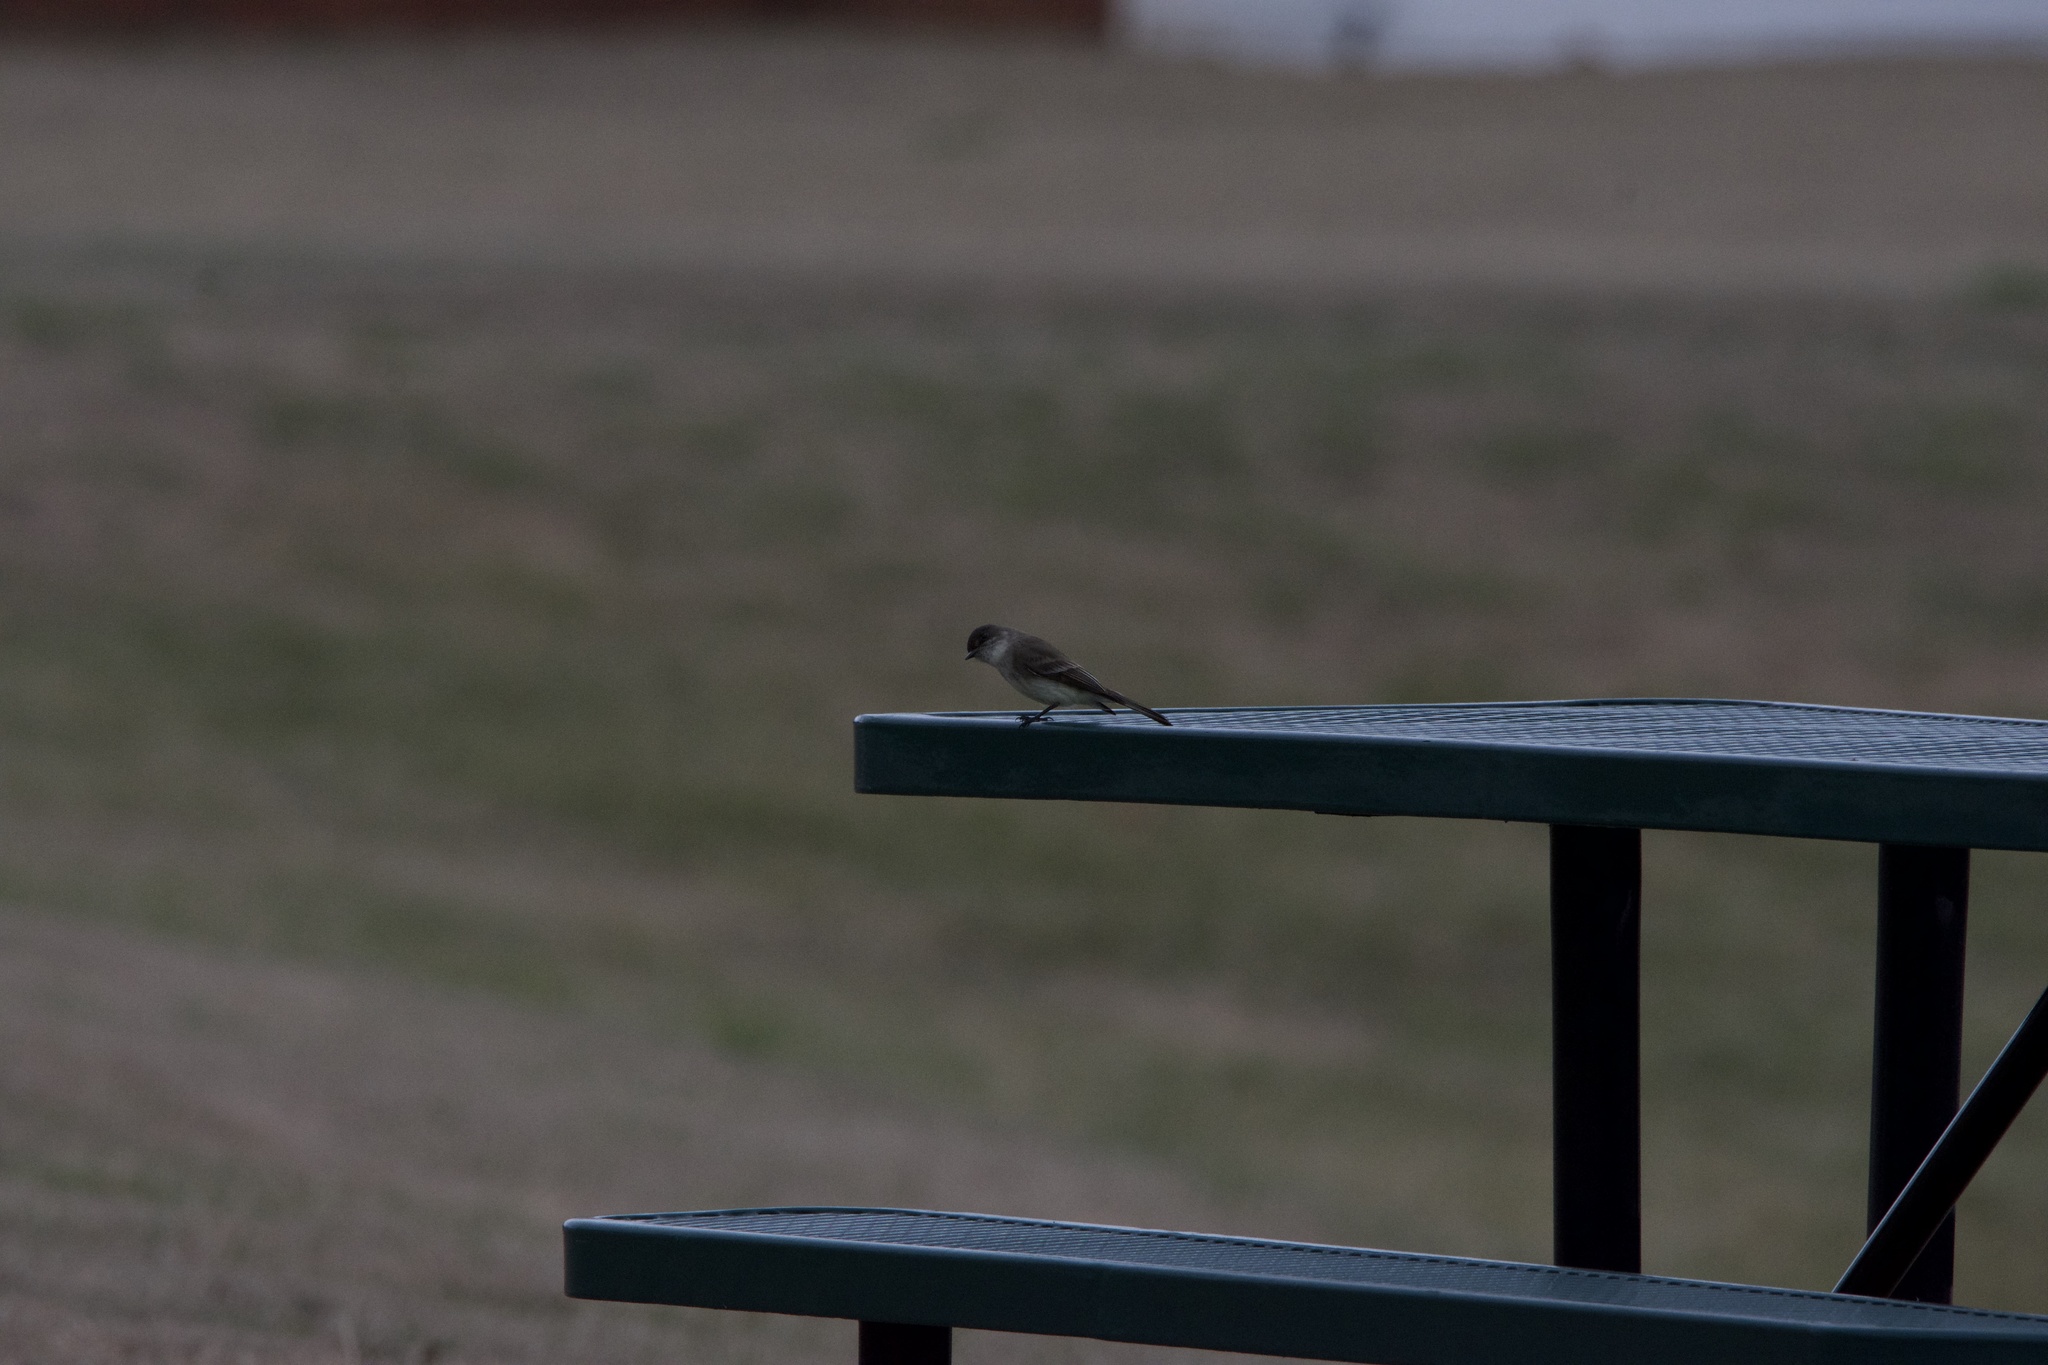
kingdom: Animalia
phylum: Chordata
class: Aves
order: Passeriformes
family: Tyrannidae
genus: Sayornis
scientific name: Sayornis phoebe
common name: Eastern phoebe
